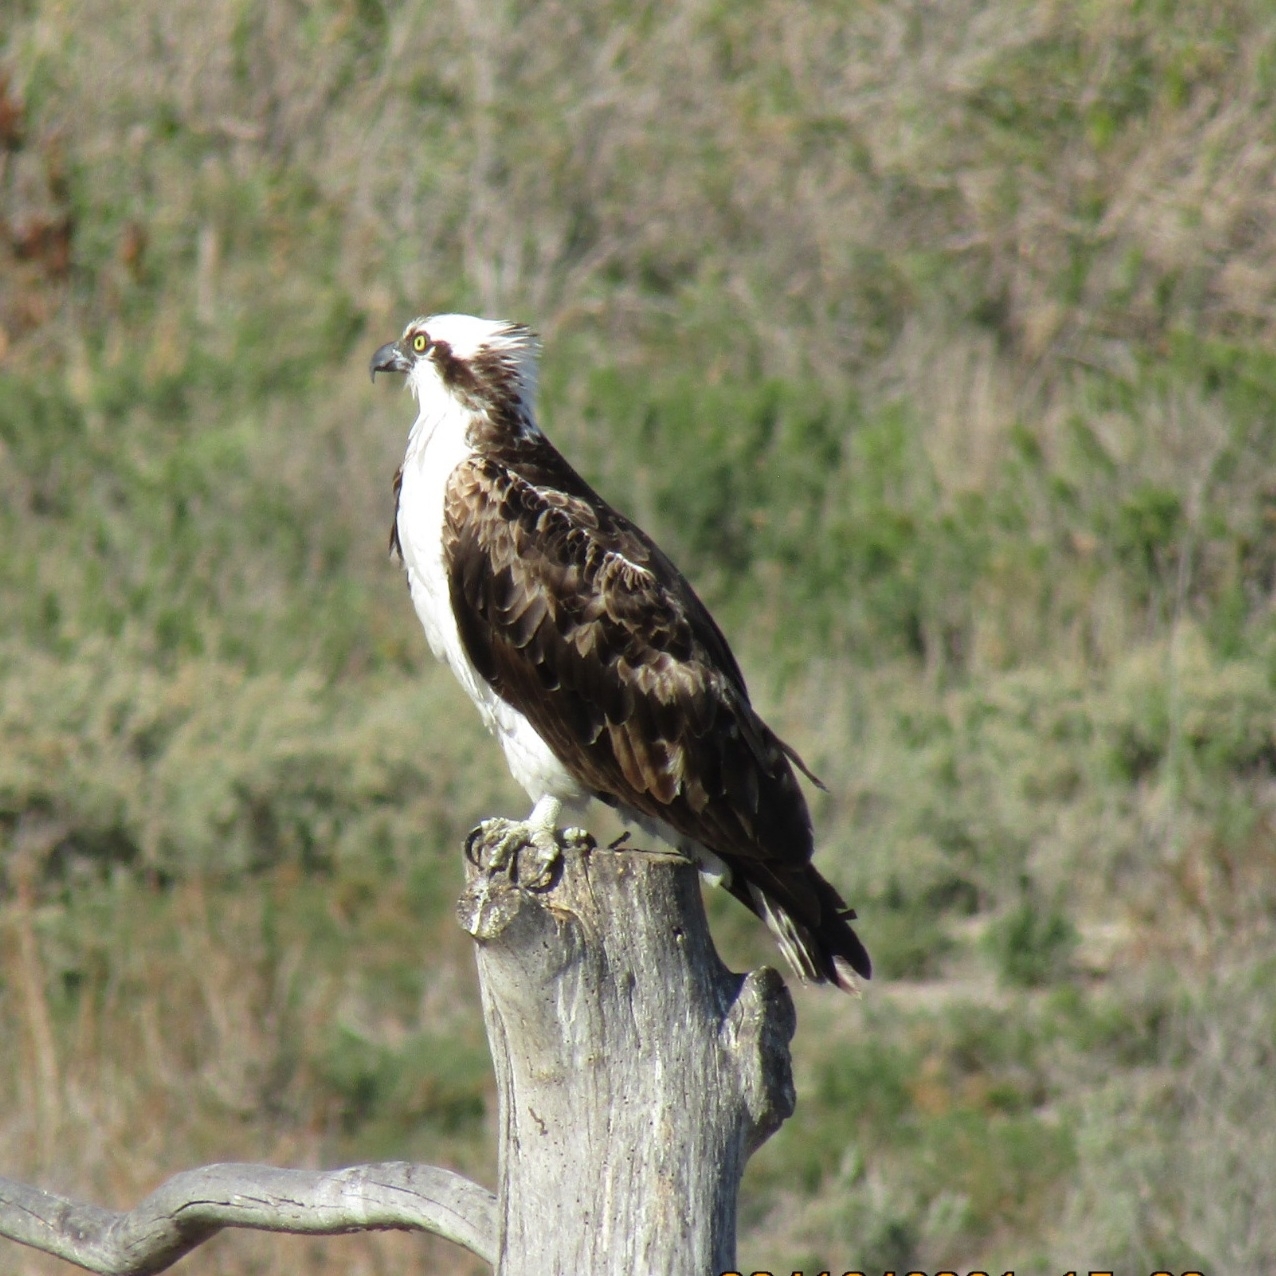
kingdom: Animalia
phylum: Chordata
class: Aves
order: Accipitriformes
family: Pandionidae
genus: Pandion
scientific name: Pandion haliaetus
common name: Osprey
